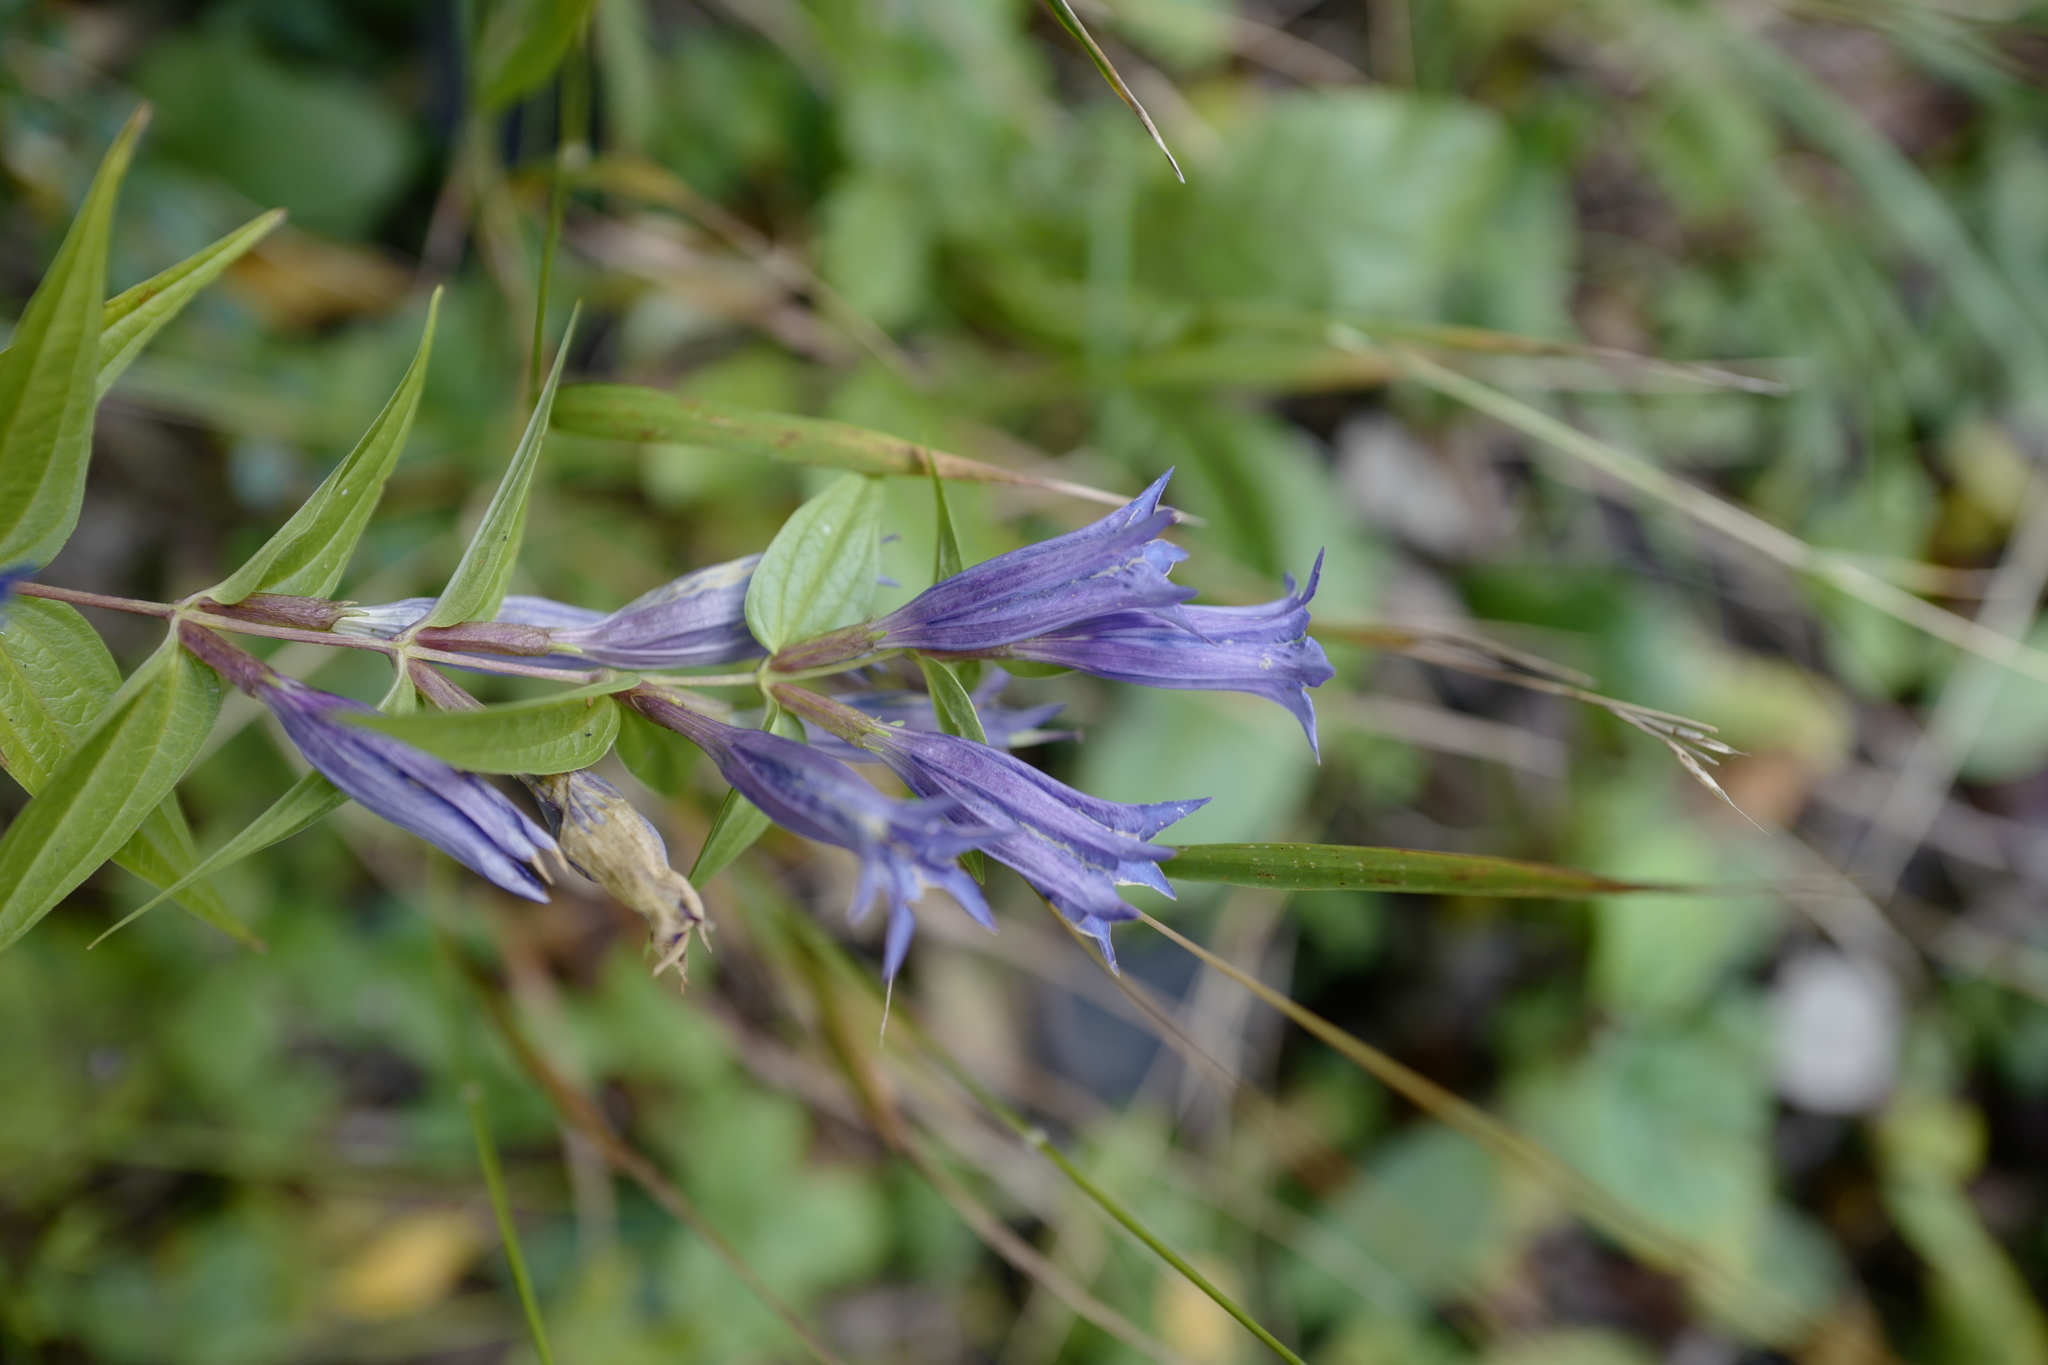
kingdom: Plantae
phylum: Tracheophyta
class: Magnoliopsida
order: Gentianales
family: Gentianaceae
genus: Gentiana
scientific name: Gentiana asclepiadea
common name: Willow gentian
